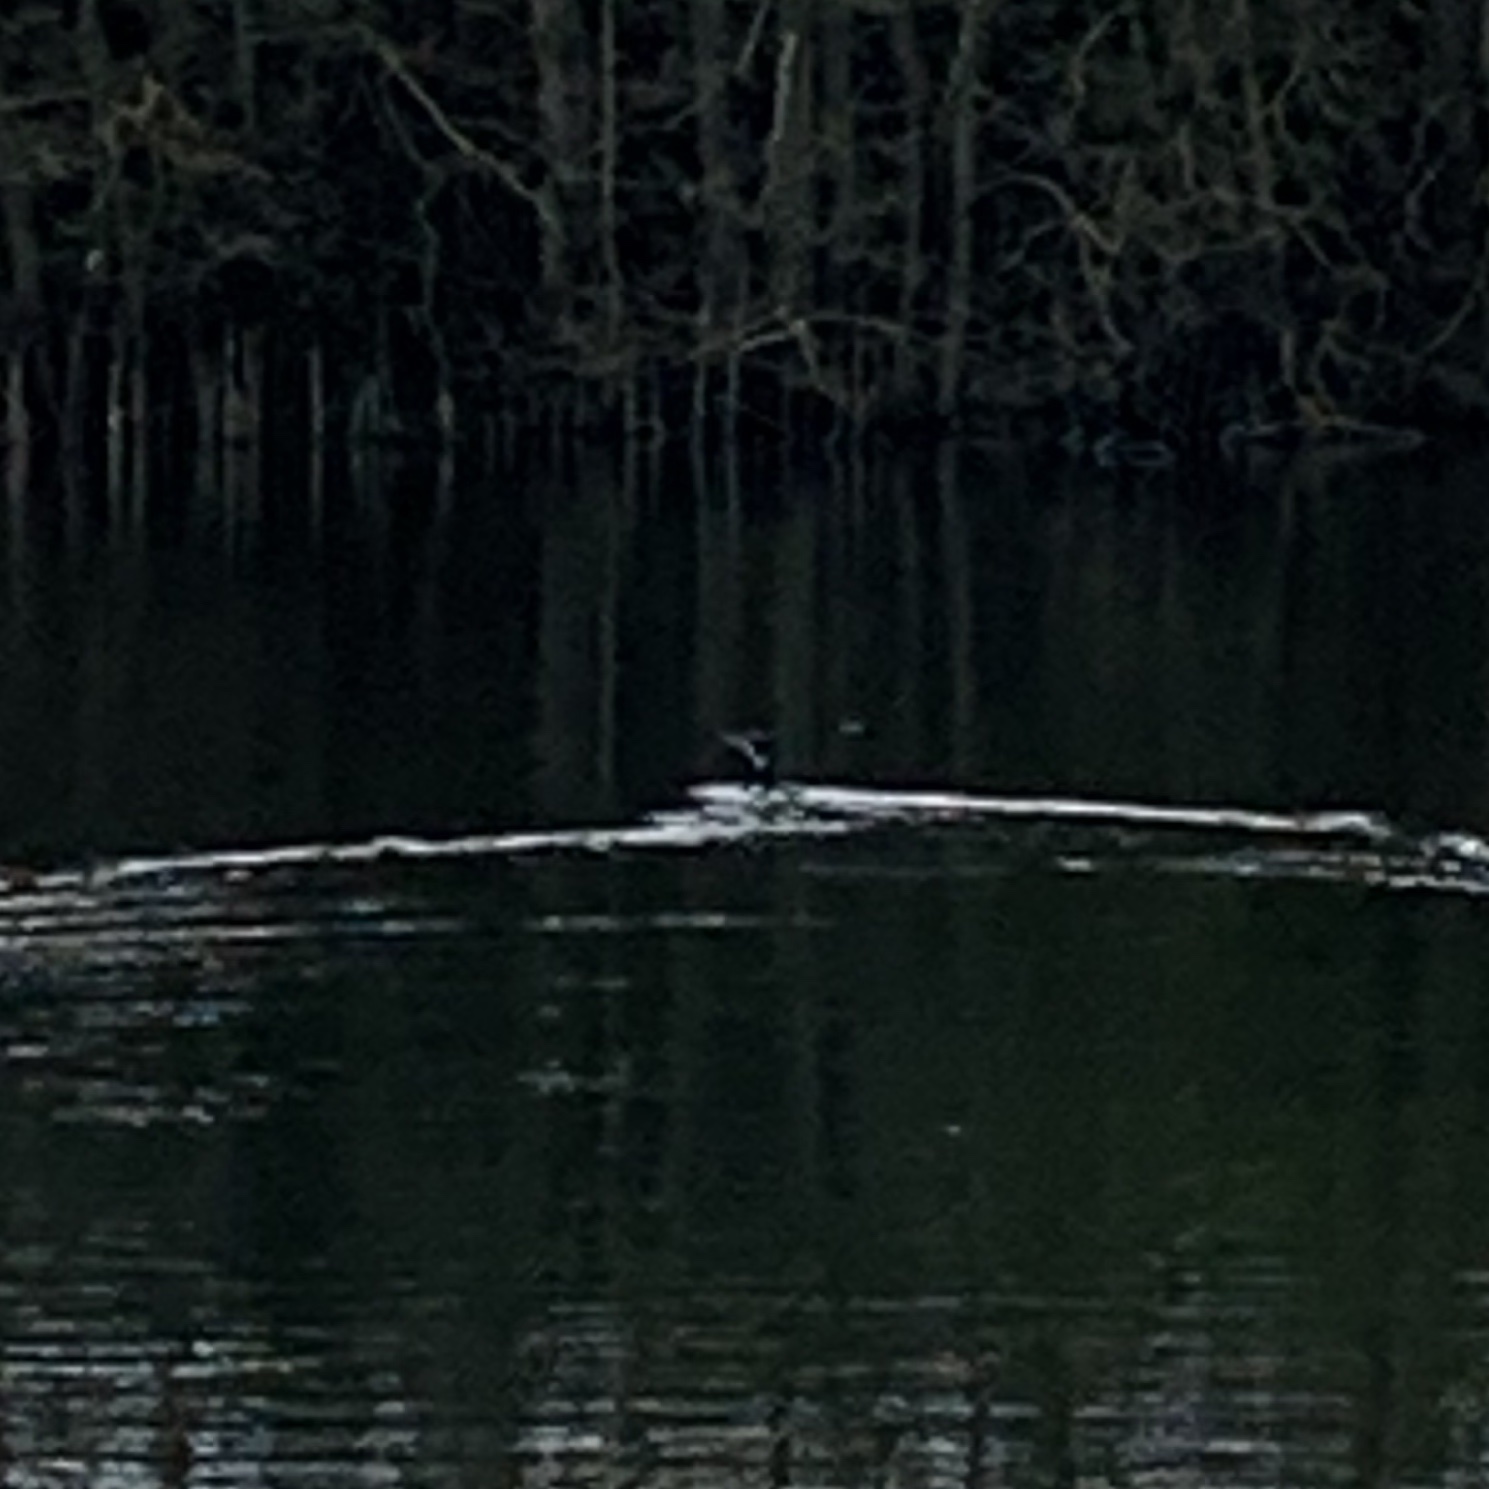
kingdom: Animalia
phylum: Chordata
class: Aves
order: Suliformes
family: Phalacrocoracidae
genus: Phalacrocorax
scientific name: Phalacrocorax carbo
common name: Great cormorant
